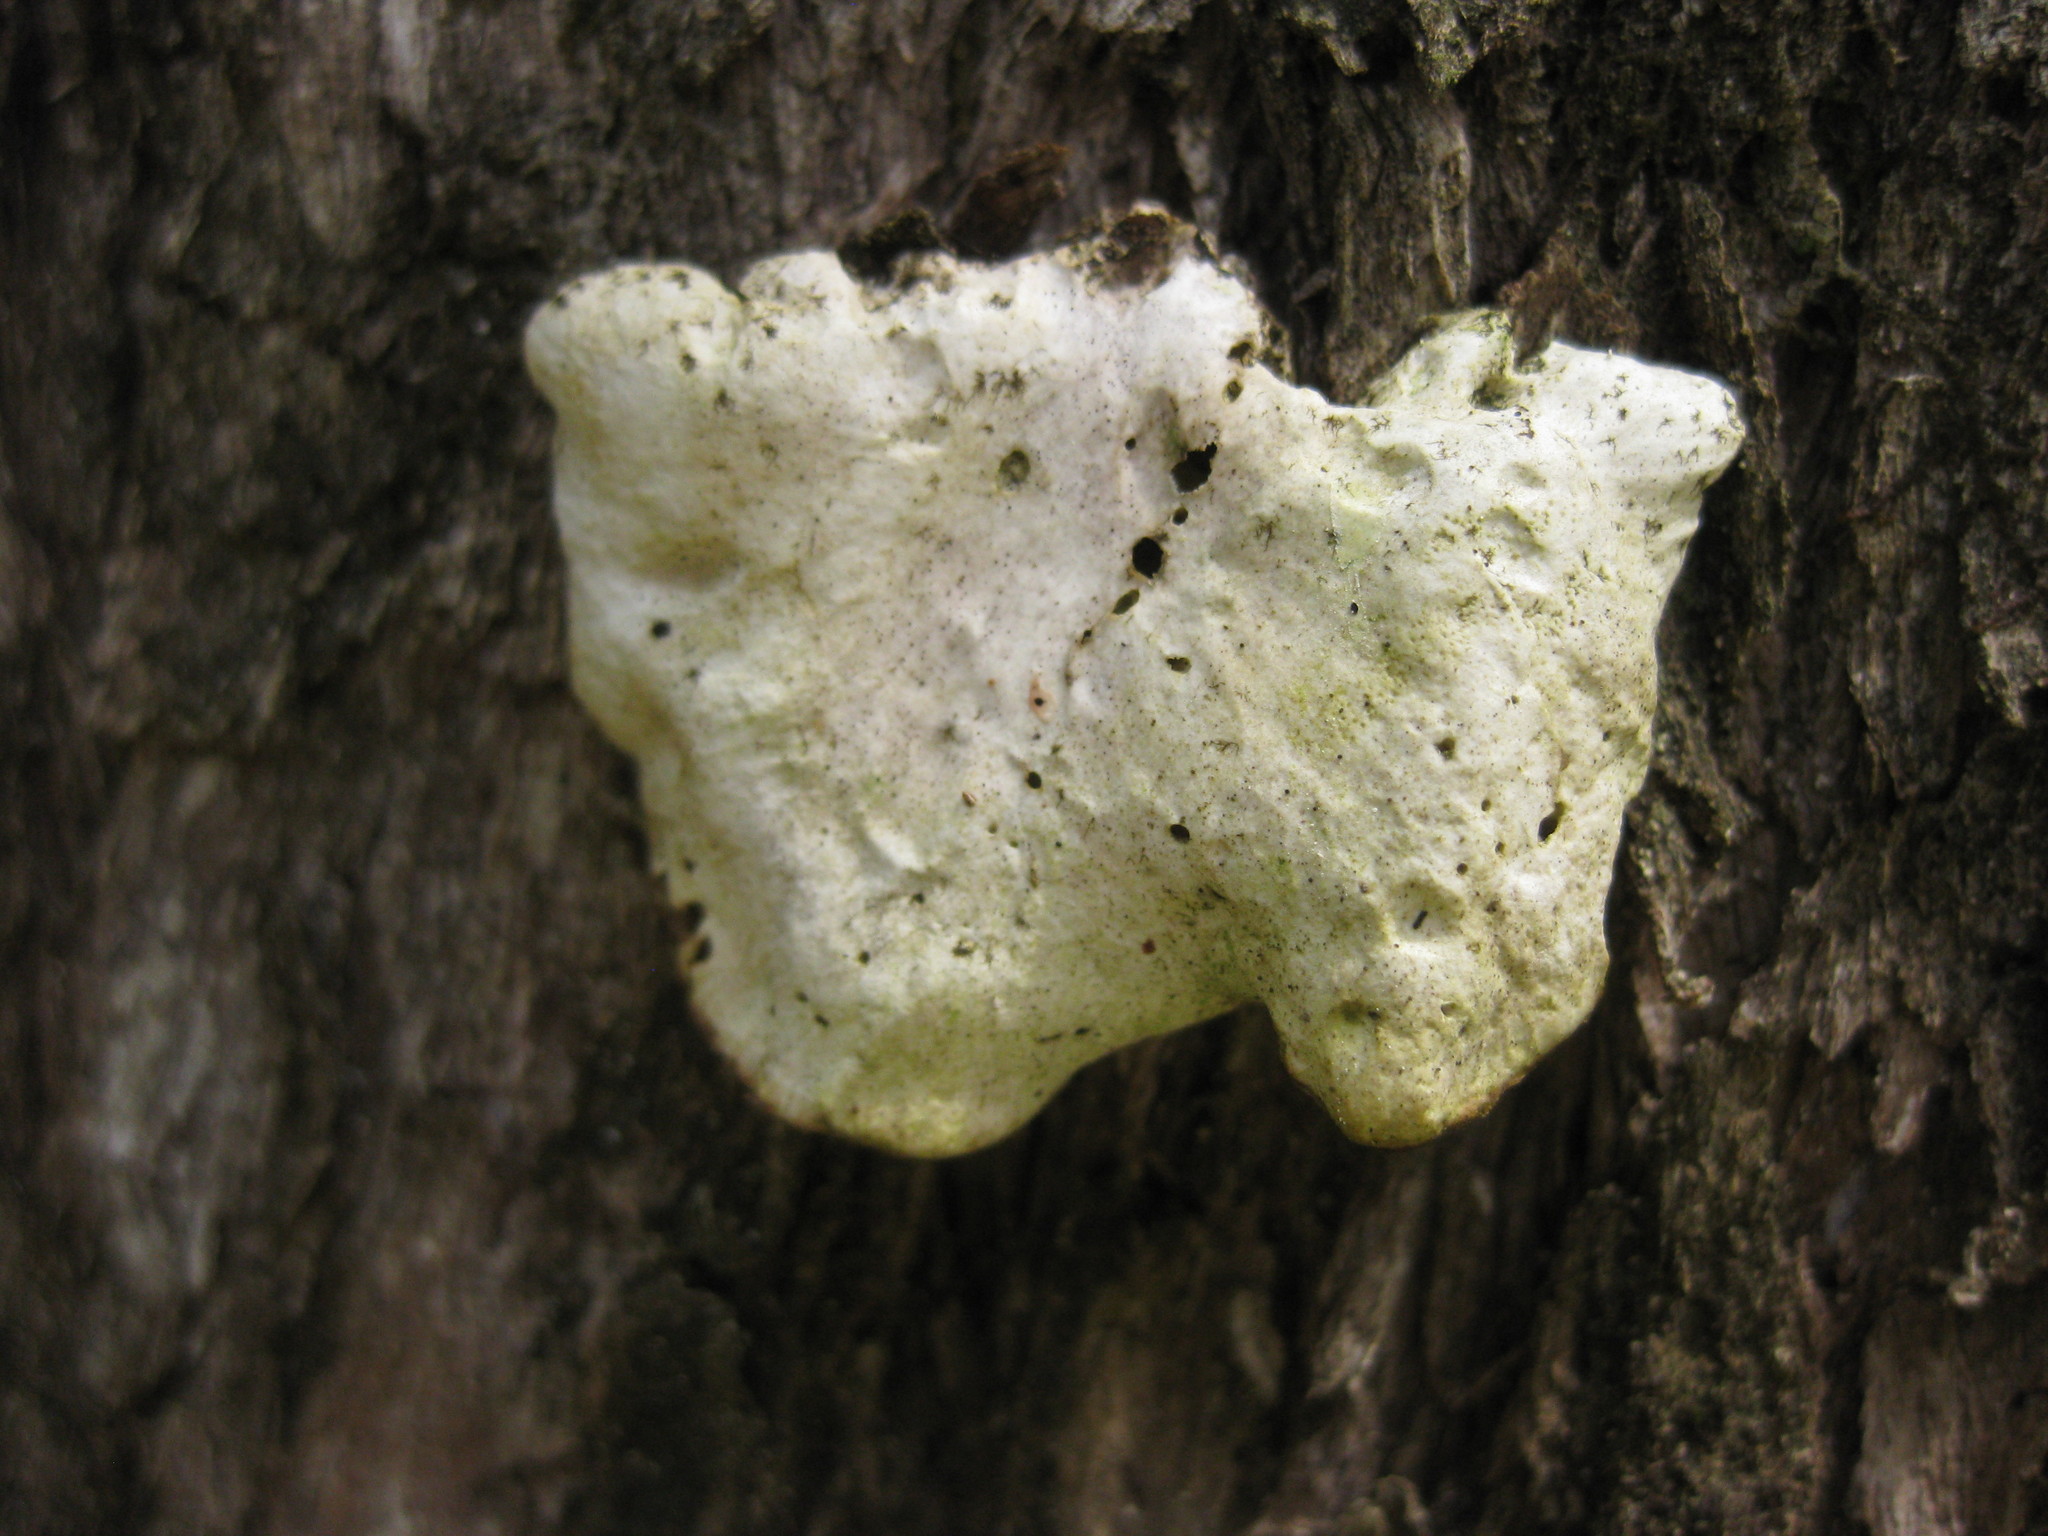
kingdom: Fungi
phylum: Basidiomycota
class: Agaricomycetes
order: Polyporales
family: Steccherinaceae
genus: Austeria
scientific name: Austeria citrea
